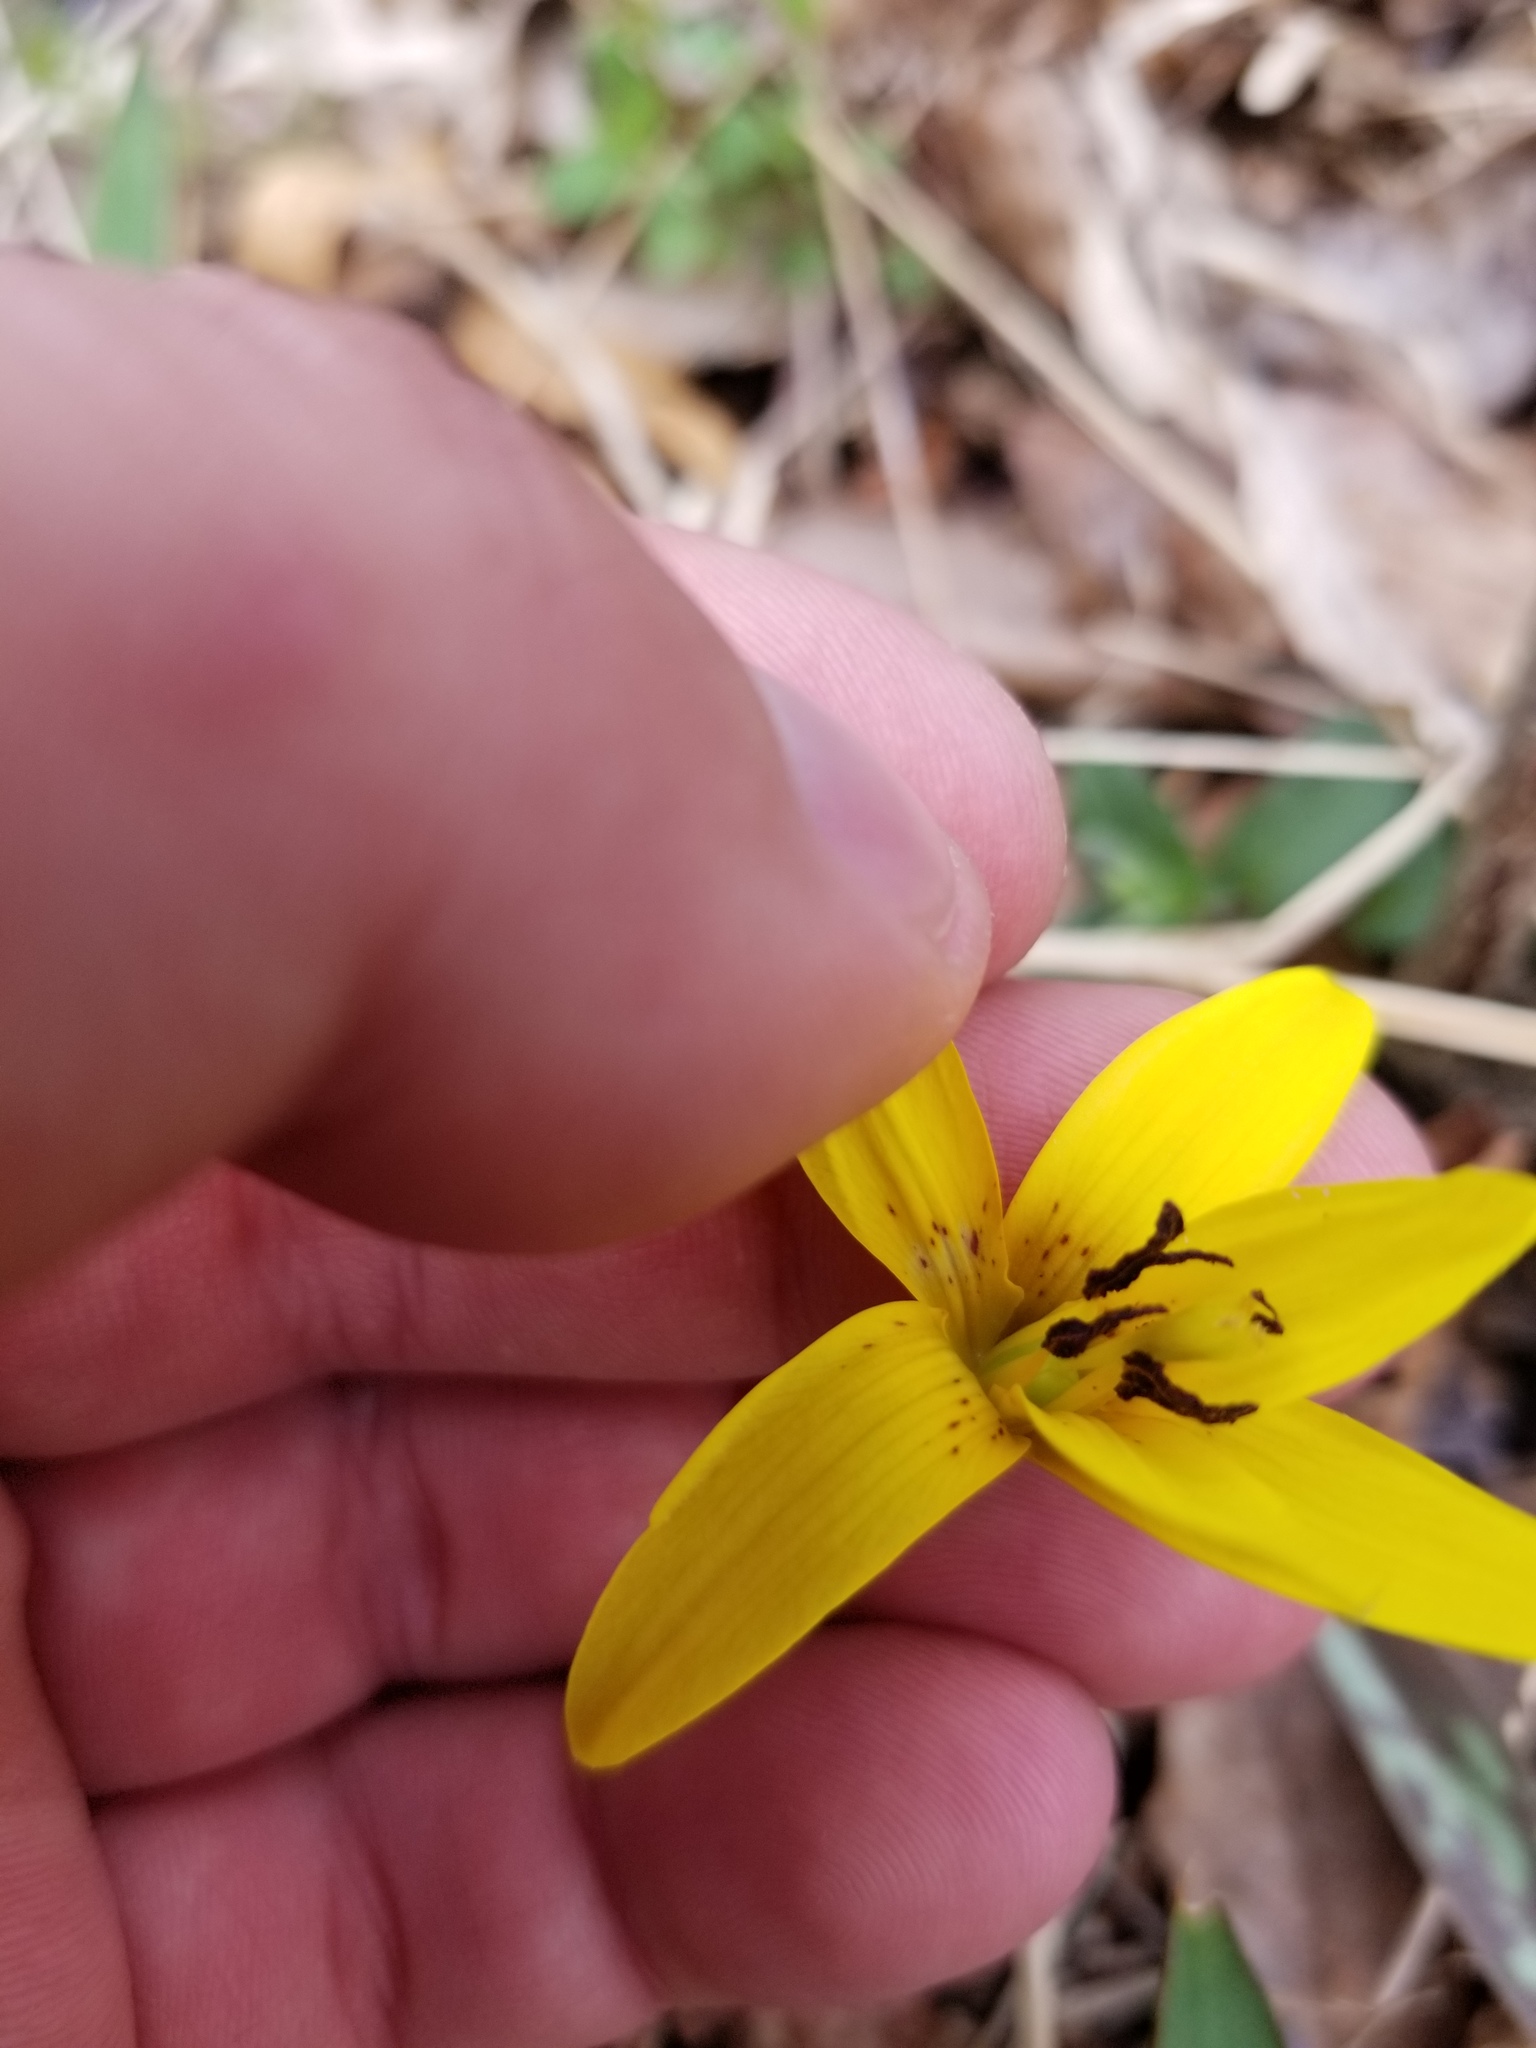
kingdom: Plantae
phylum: Tracheophyta
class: Liliopsida
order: Liliales
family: Liliaceae
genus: Erythronium
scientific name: Erythronium americanum
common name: Yellow adder's-tongue
